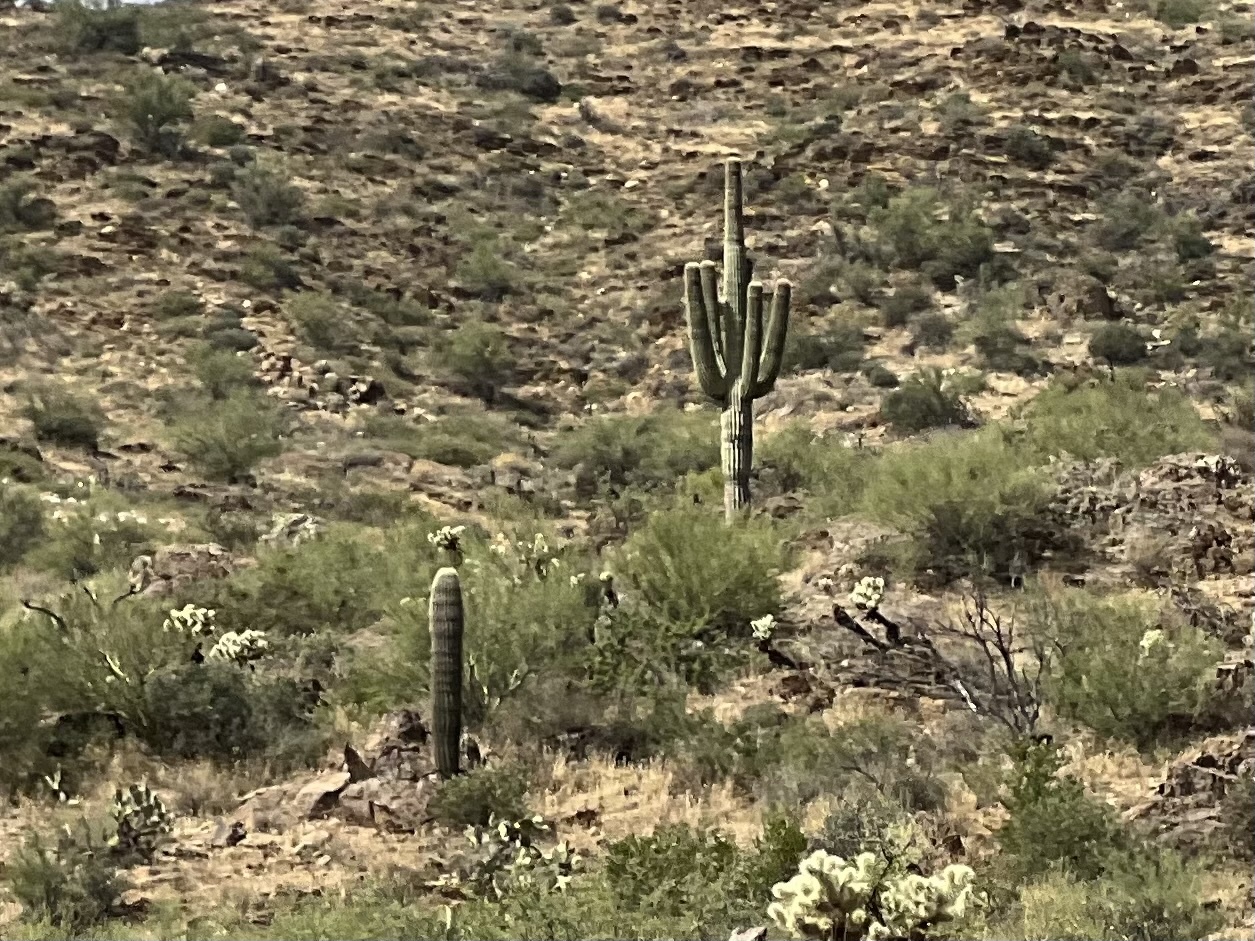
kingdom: Plantae
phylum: Tracheophyta
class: Magnoliopsida
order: Caryophyllales
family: Cactaceae
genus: Carnegiea
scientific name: Carnegiea gigantea
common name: Saguaro
